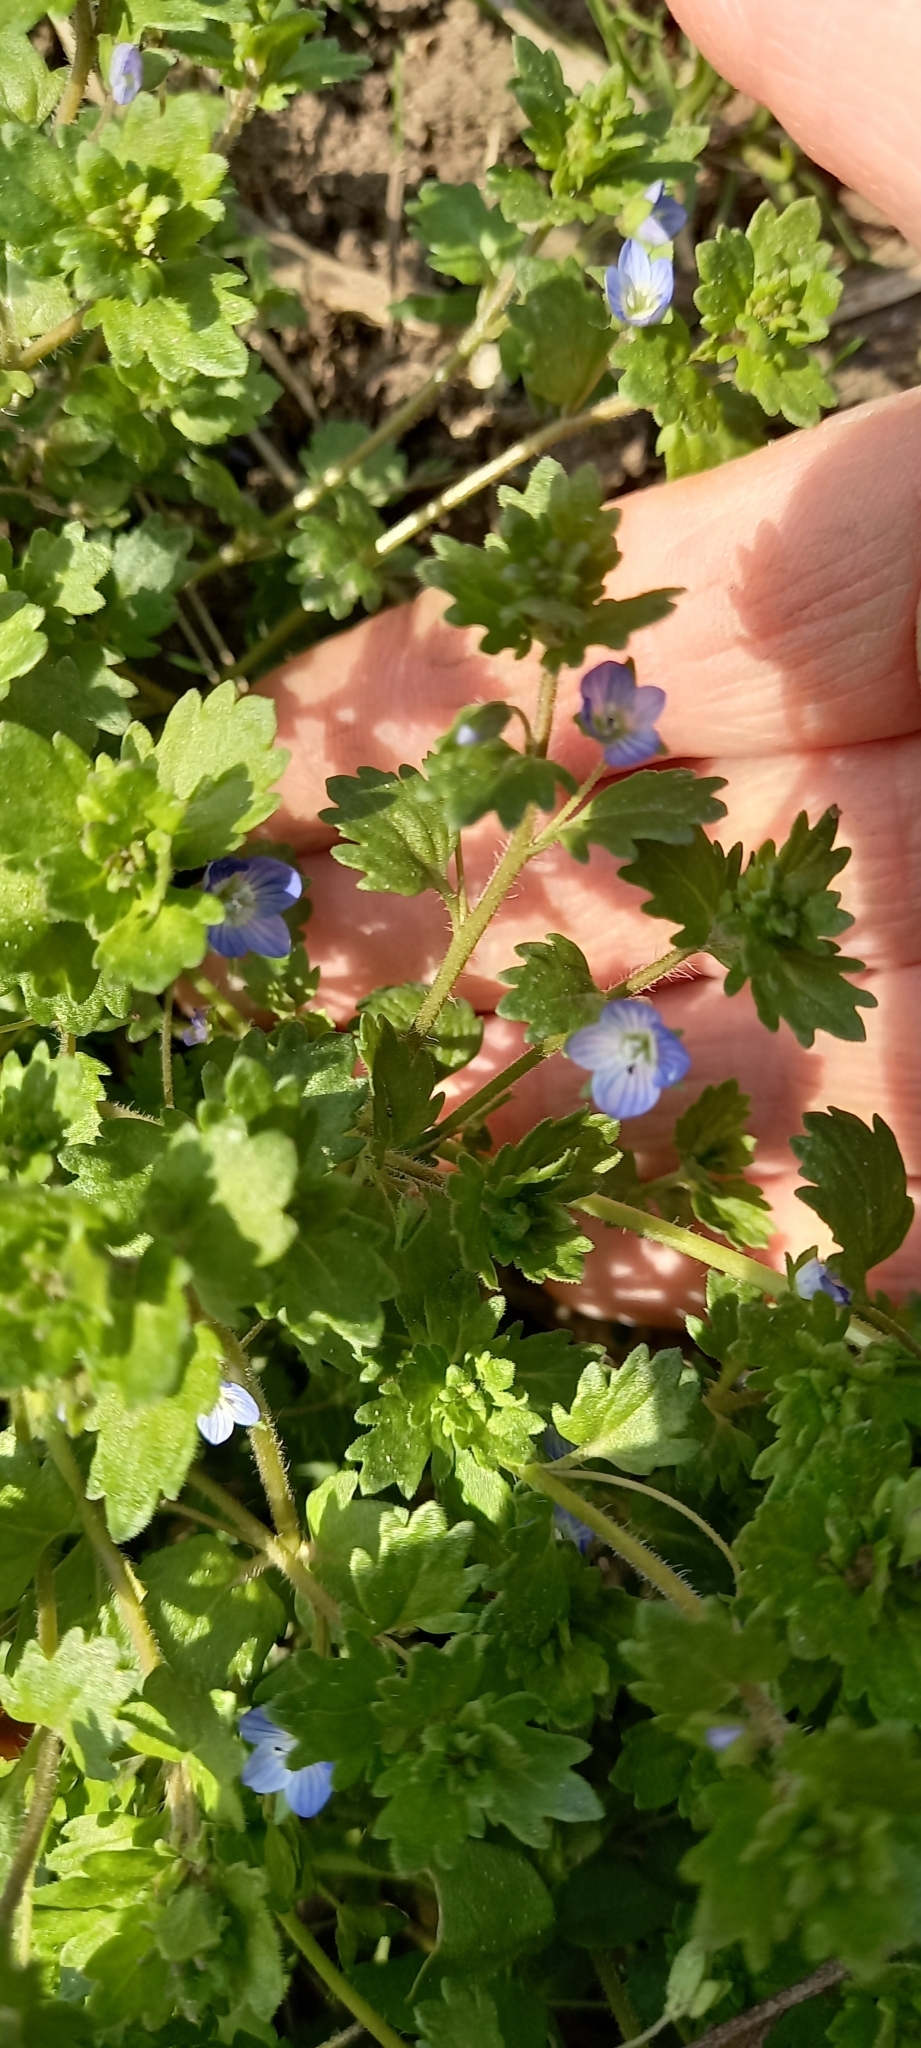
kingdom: Plantae
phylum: Tracheophyta
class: Magnoliopsida
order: Lamiales
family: Plantaginaceae
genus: Veronica
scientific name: Veronica polita
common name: Grey field-speedwell
